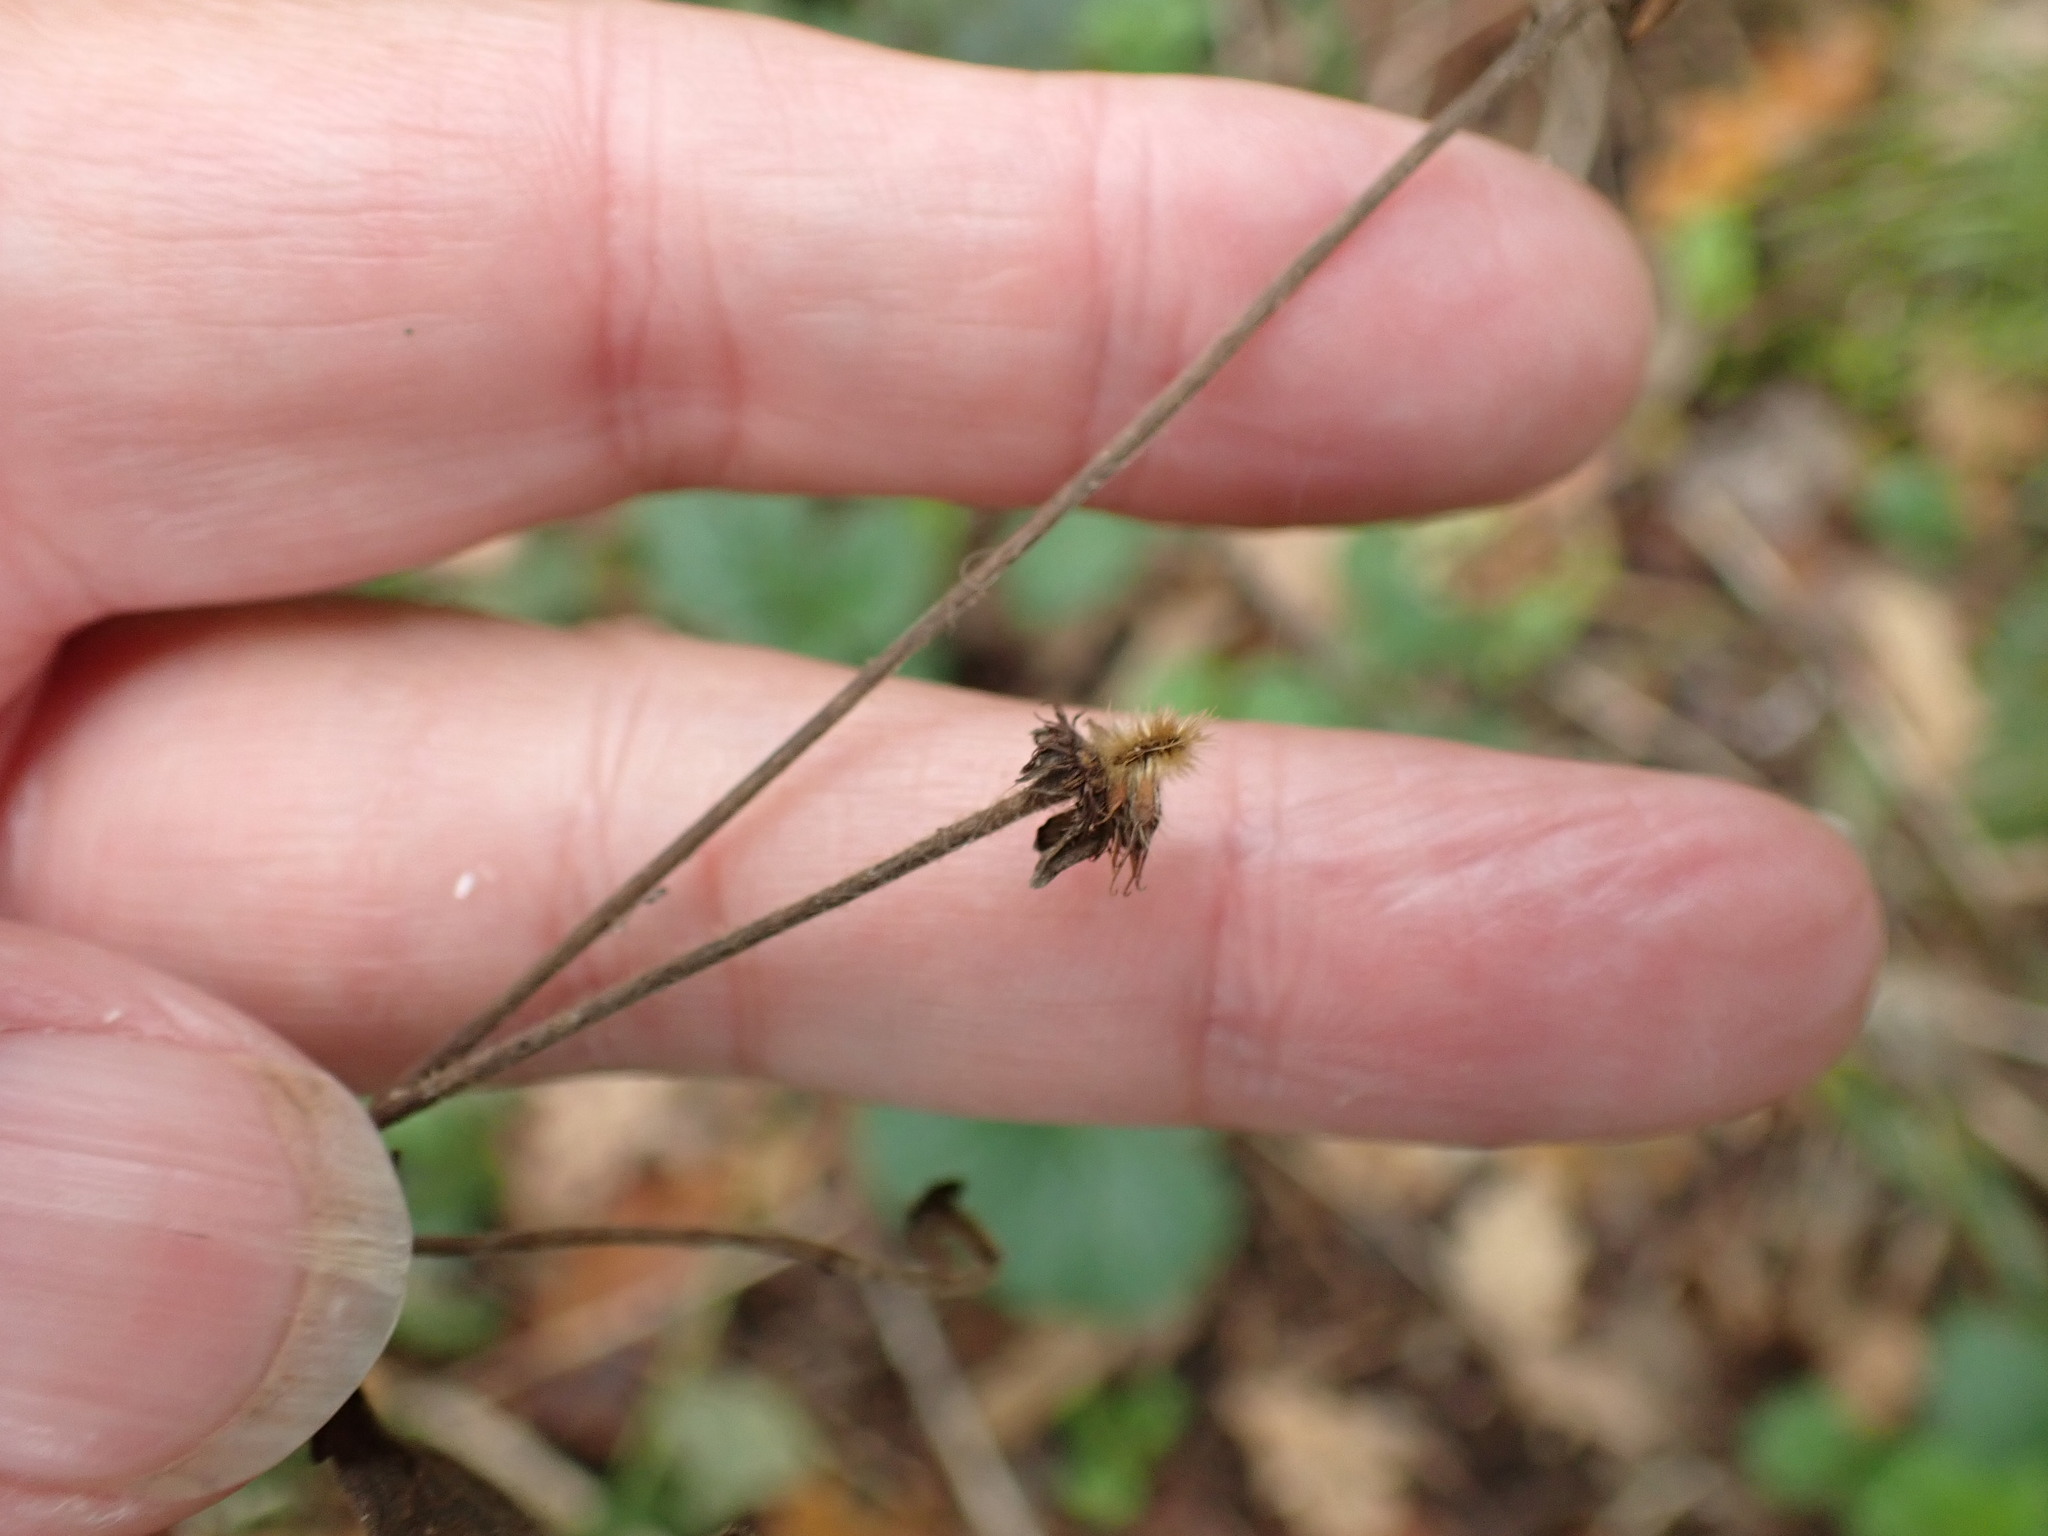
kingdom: Plantae
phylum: Tracheophyta
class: Magnoliopsida
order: Rosales
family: Rosaceae
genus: Geum
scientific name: Geum urbanum
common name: Wood avens
